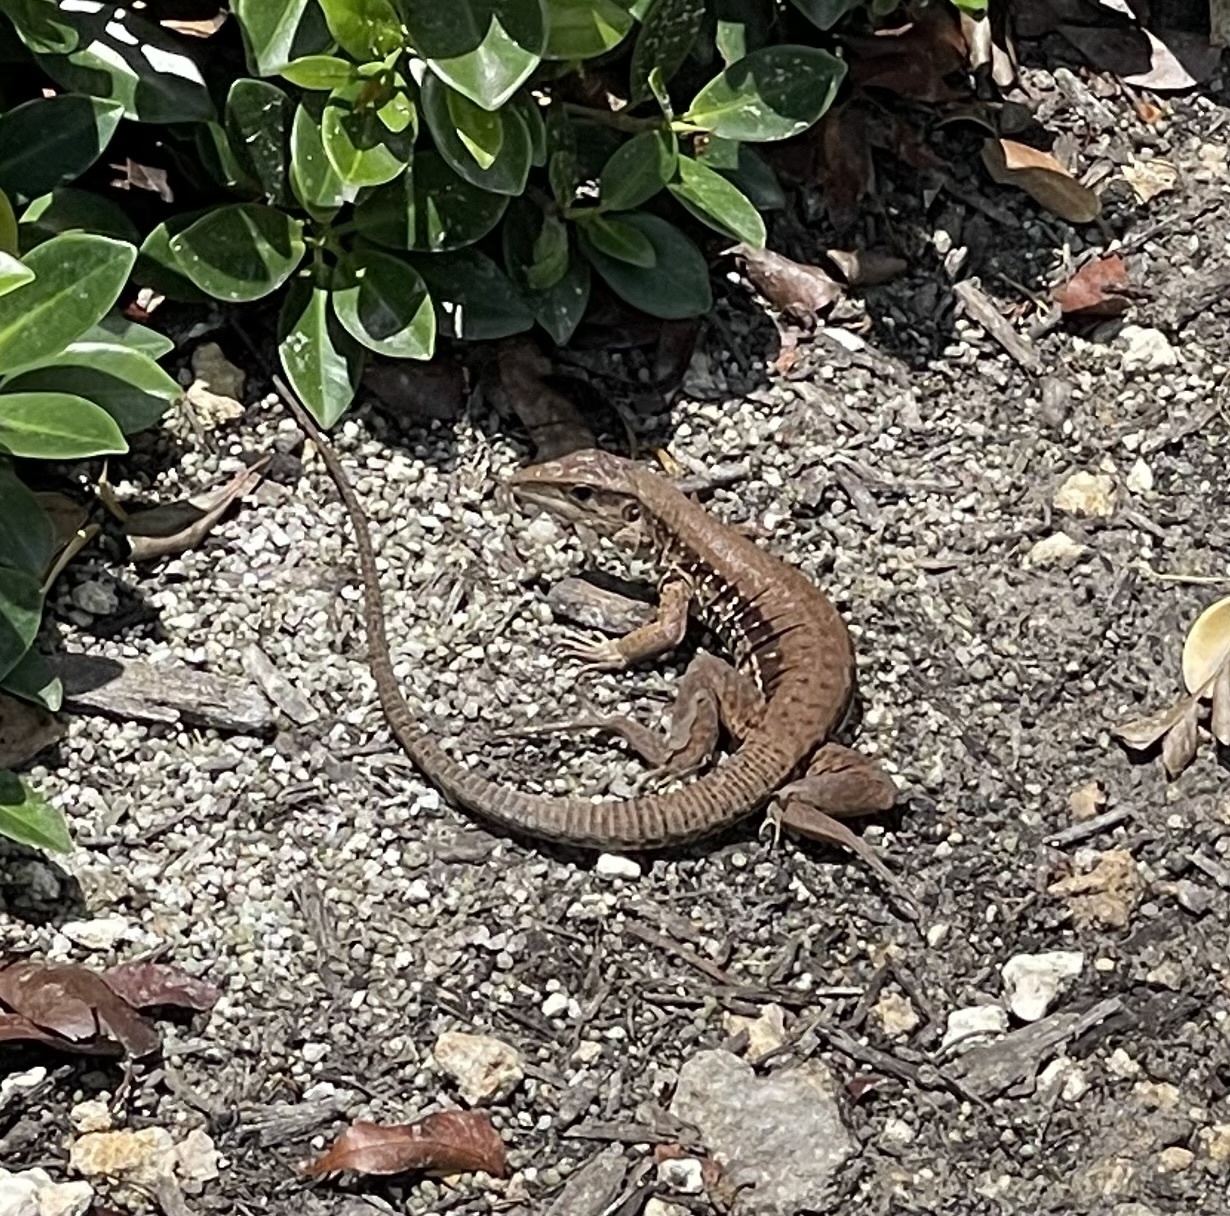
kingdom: Animalia
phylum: Chordata
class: Squamata
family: Teiidae
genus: Ameiva
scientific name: Ameiva ameiva
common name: Giant ameiva
